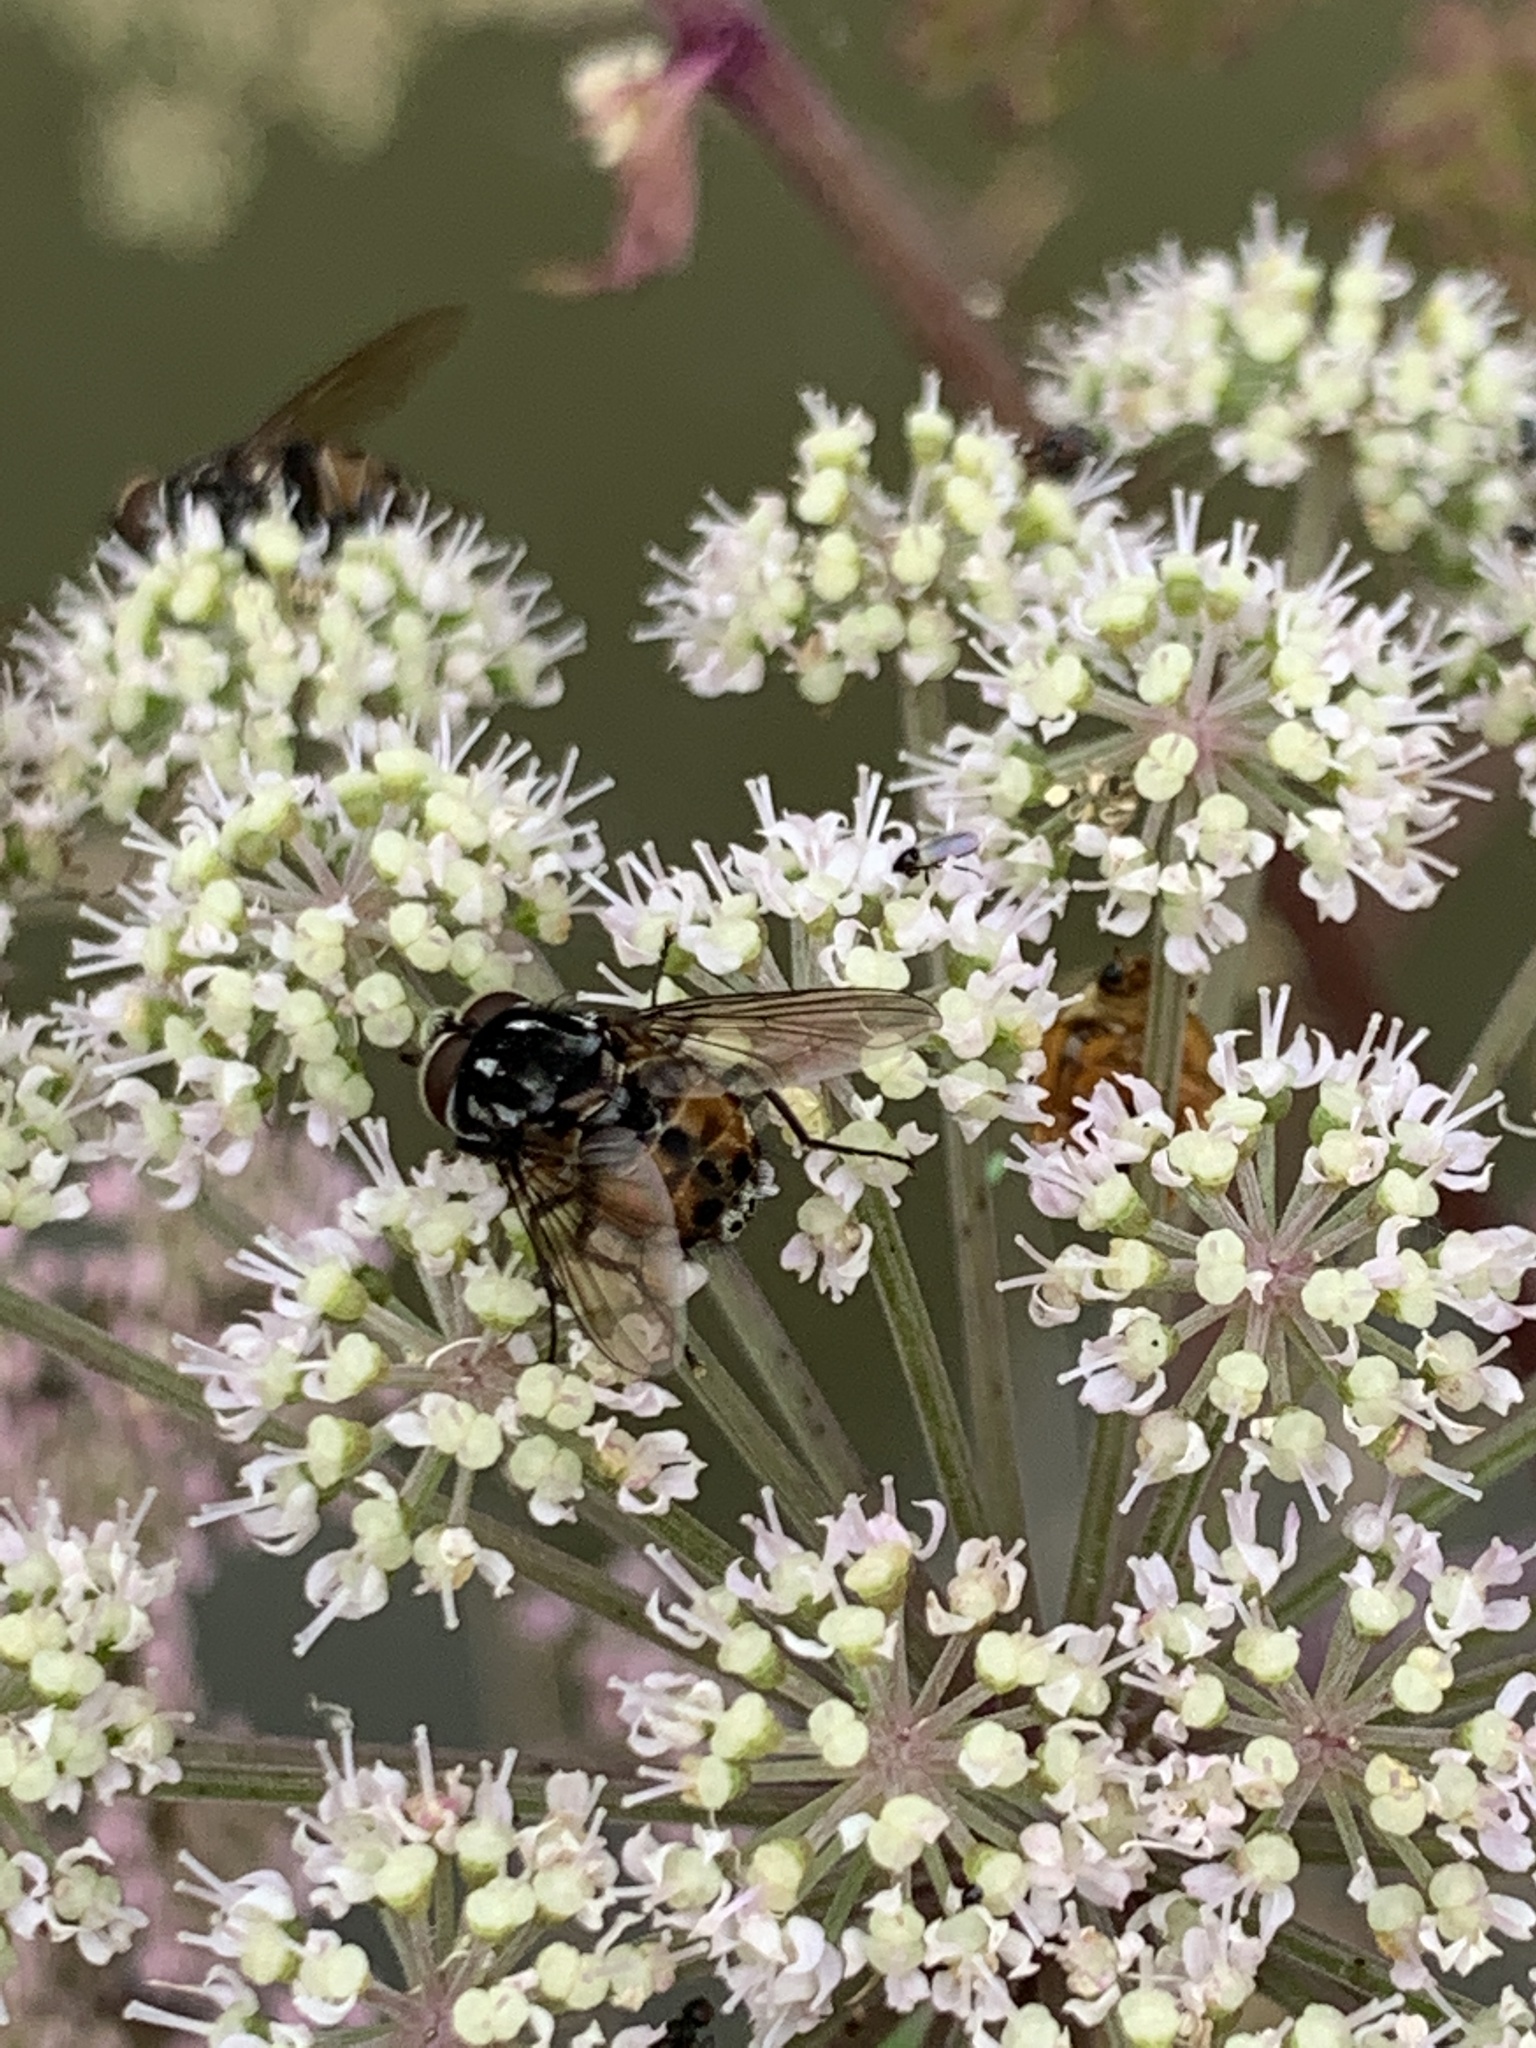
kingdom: Animalia
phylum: Arthropoda
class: Insecta
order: Diptera
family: Muscidae
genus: Graphomya
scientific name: Graphomya maculata
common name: Muscid fly
